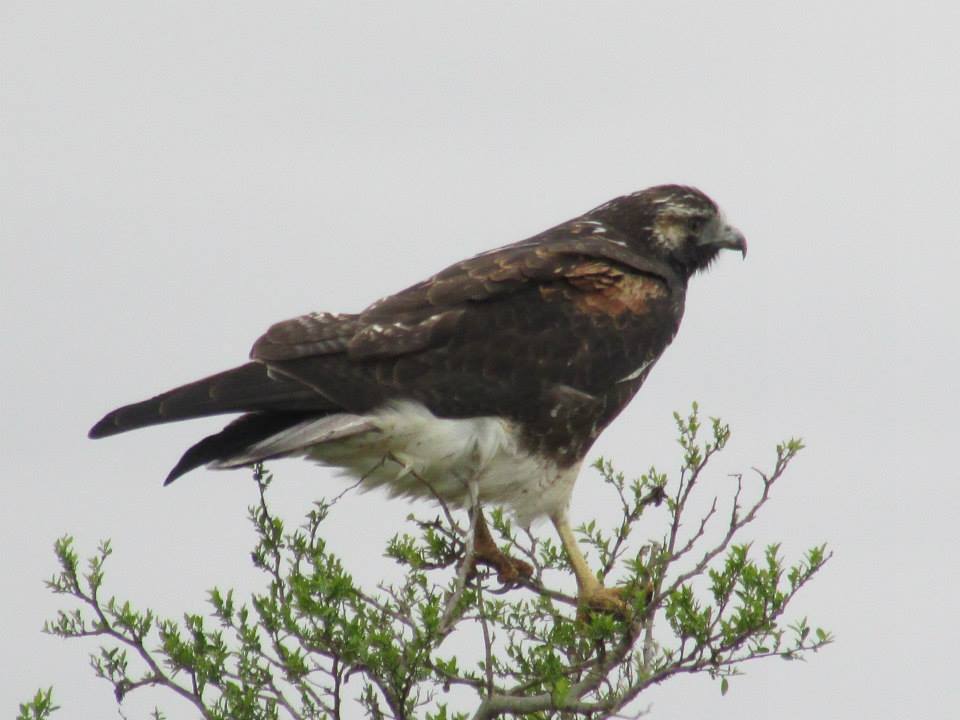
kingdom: Animalia
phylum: Chordata
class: Aves
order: Accipitriformes
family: Accipitridae
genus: Buteo
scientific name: Buteo albicaudatus
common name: White-tailed hawk
